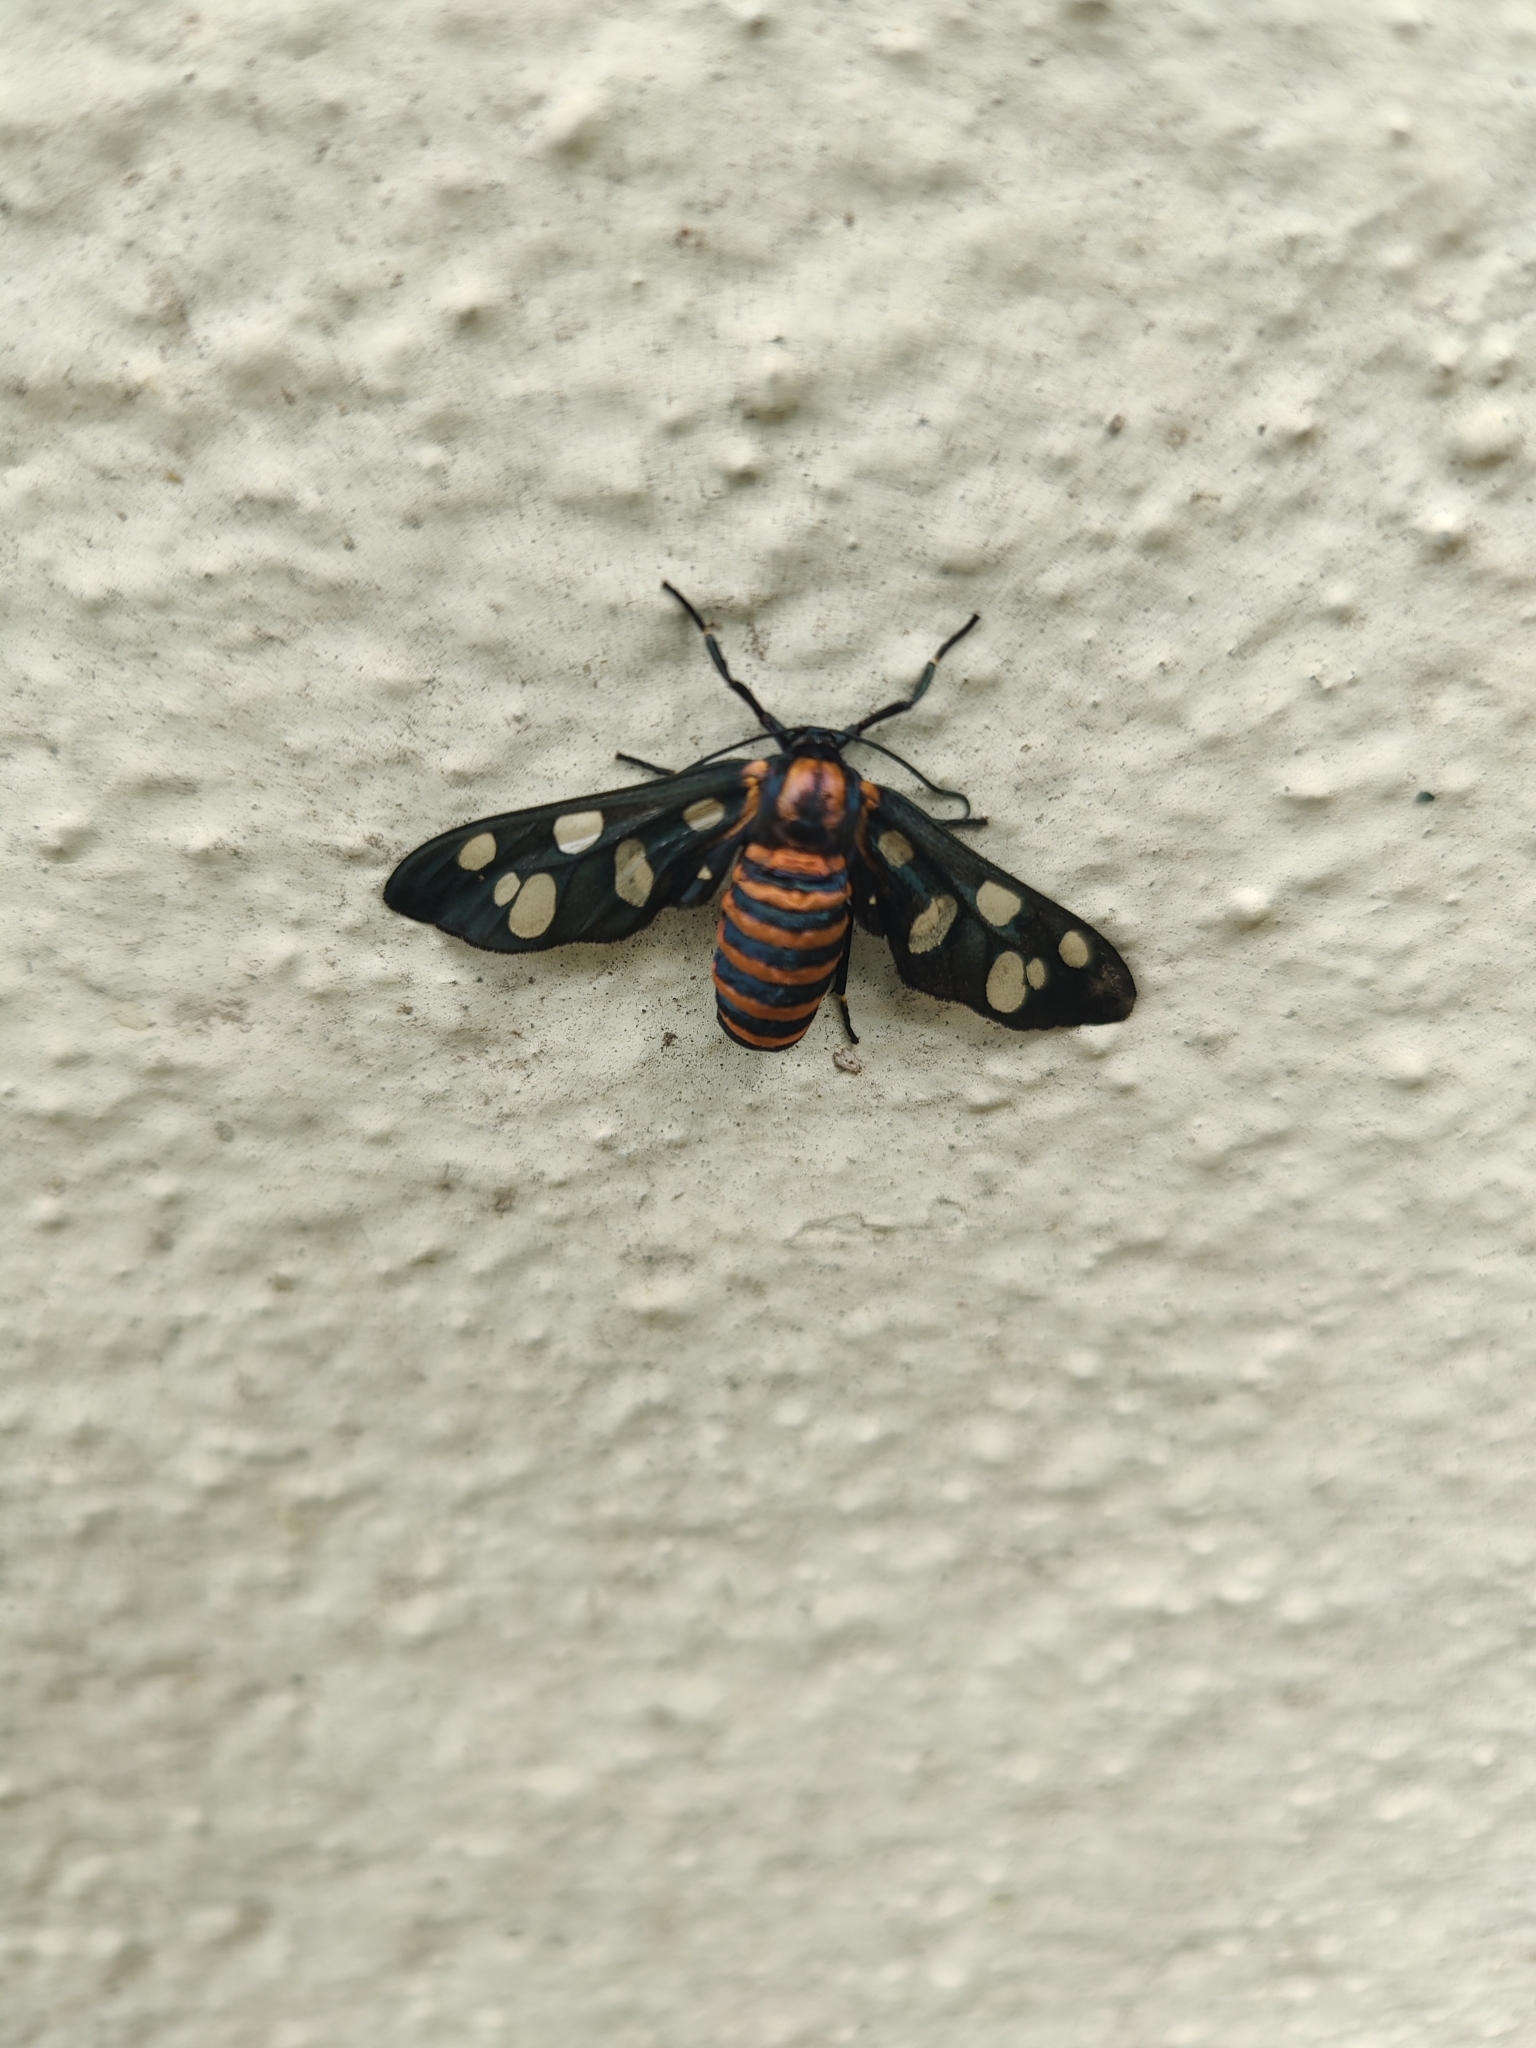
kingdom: Animalia
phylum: Arthropoda
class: Insecta
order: Lepidoptera
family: Erebidae
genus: Amata
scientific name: Amata passalis
